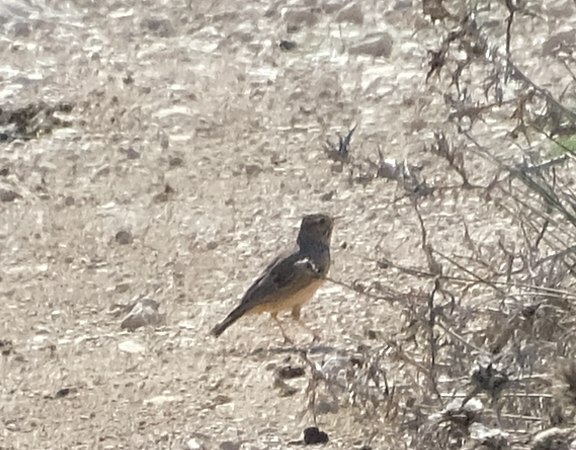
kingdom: Animalia
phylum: Chordata
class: Aves
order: Passeriformes
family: Alaudidae
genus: Galerida
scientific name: Galerida cristata
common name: Crested lark
